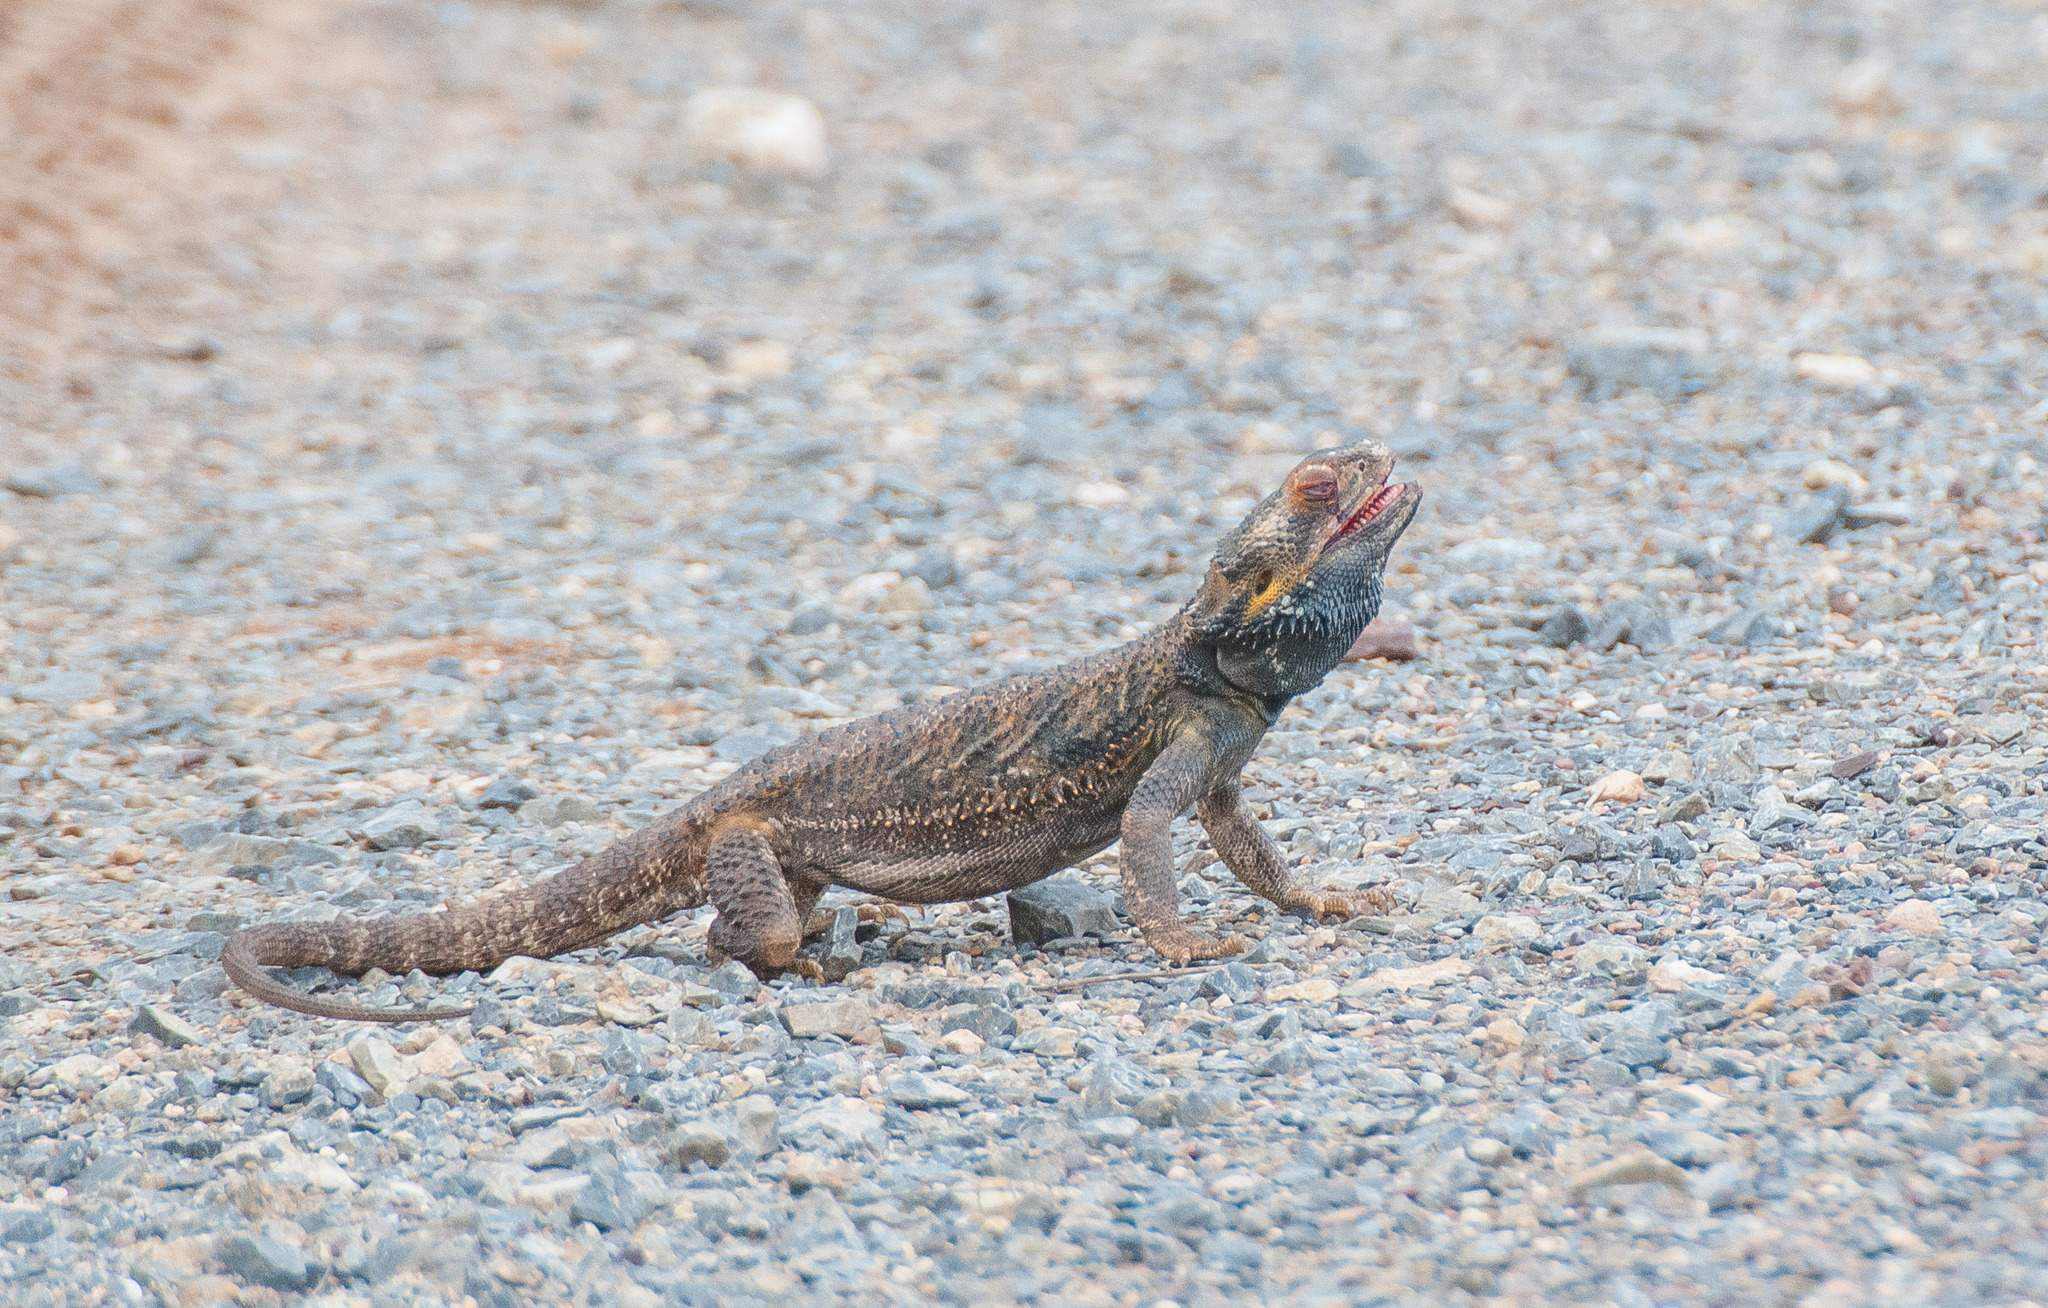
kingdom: Animalia
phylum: Chordata
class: Squamata
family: Agamidae
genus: Pogona
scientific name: Pogona vitticeps
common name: Central bearded dragon
